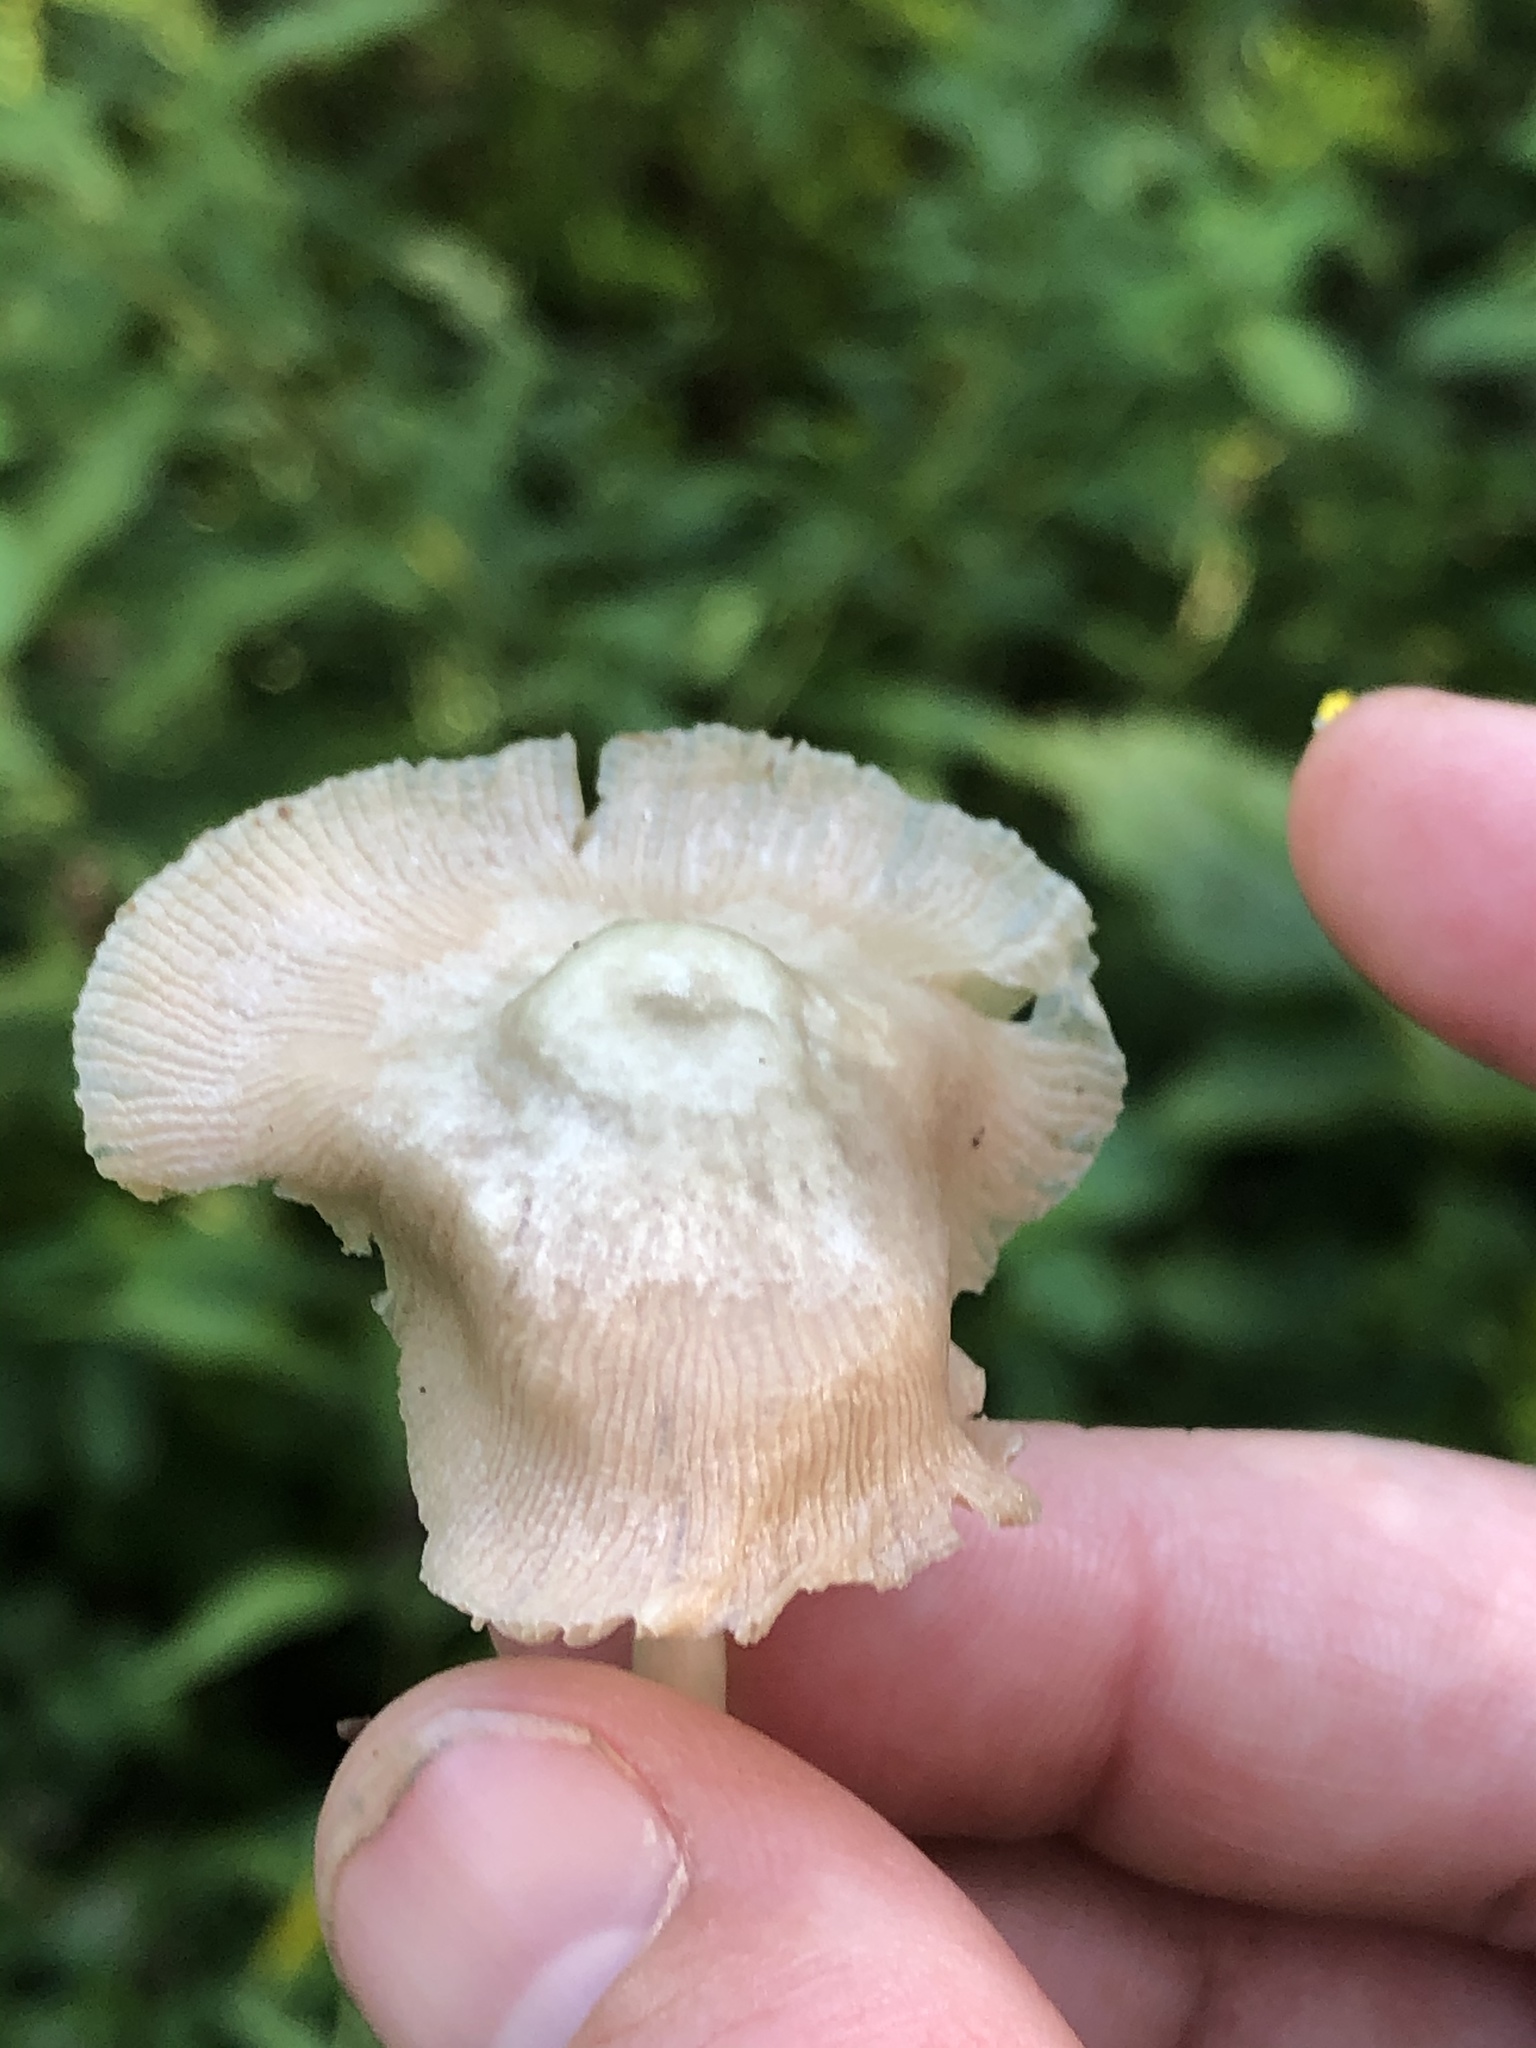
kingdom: Fungi
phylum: Basidiomycota
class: Agaricomycetes
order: Agaricales
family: Pluteaceae
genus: Pluteus
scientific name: Pluteus longistriatus
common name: Pleated pluteus
